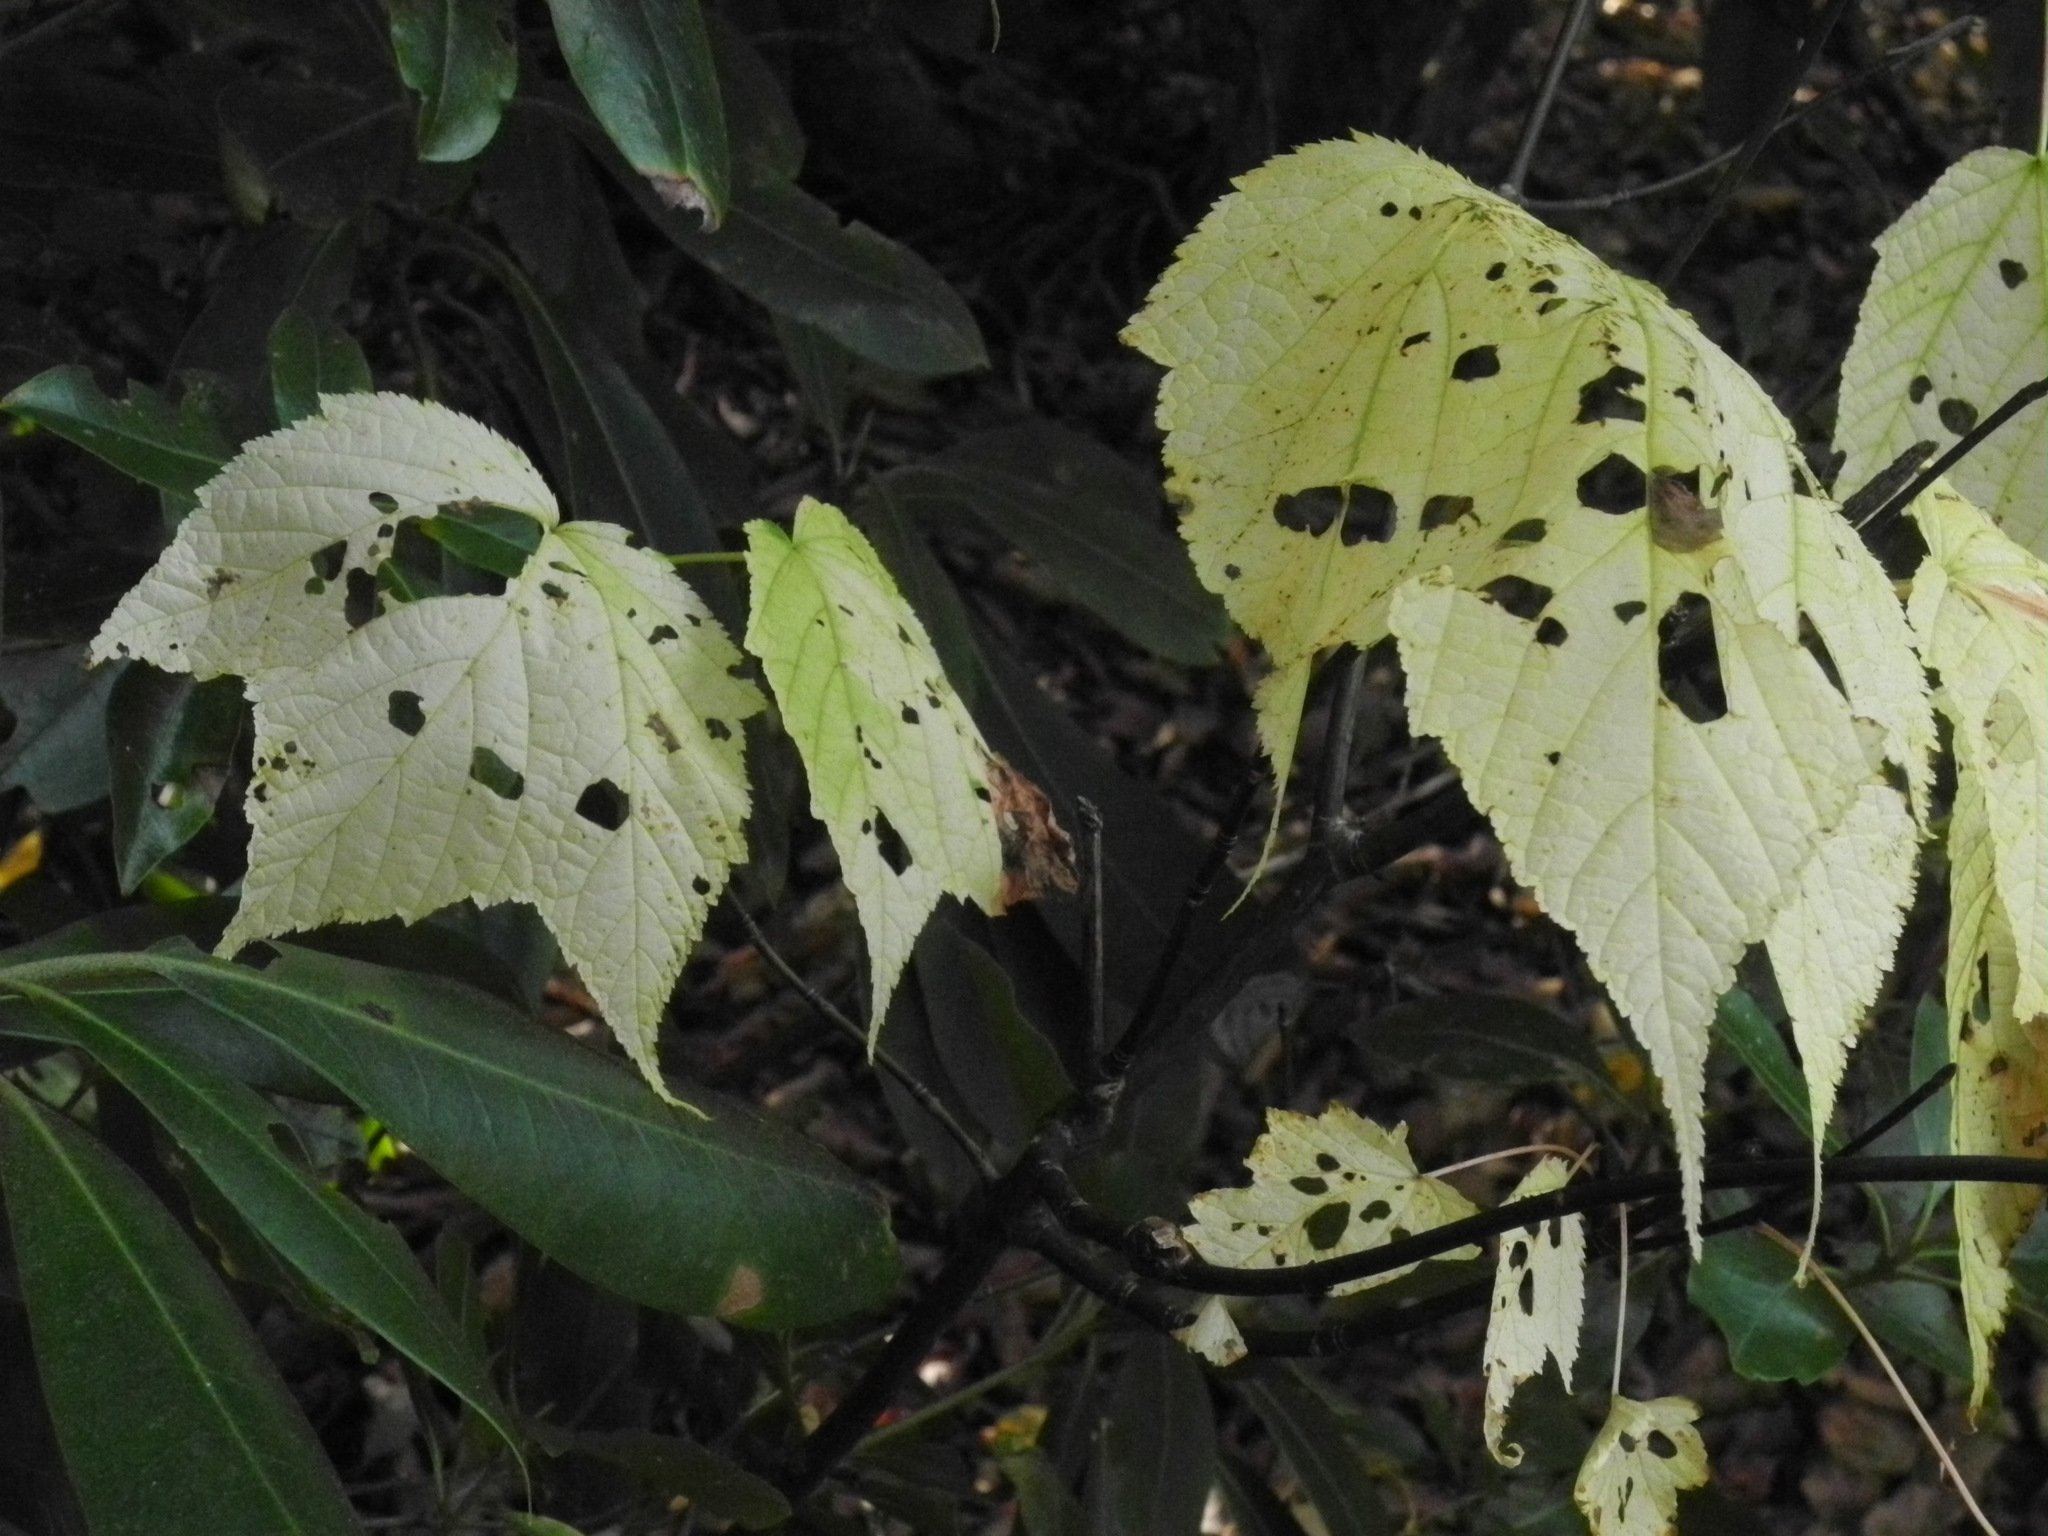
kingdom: Plantae
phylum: Tracheophyta
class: Magnoliopsida
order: Sapindales
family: Sapindaceae
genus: Acer
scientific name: Acer pensylvanicum
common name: Moosewood
